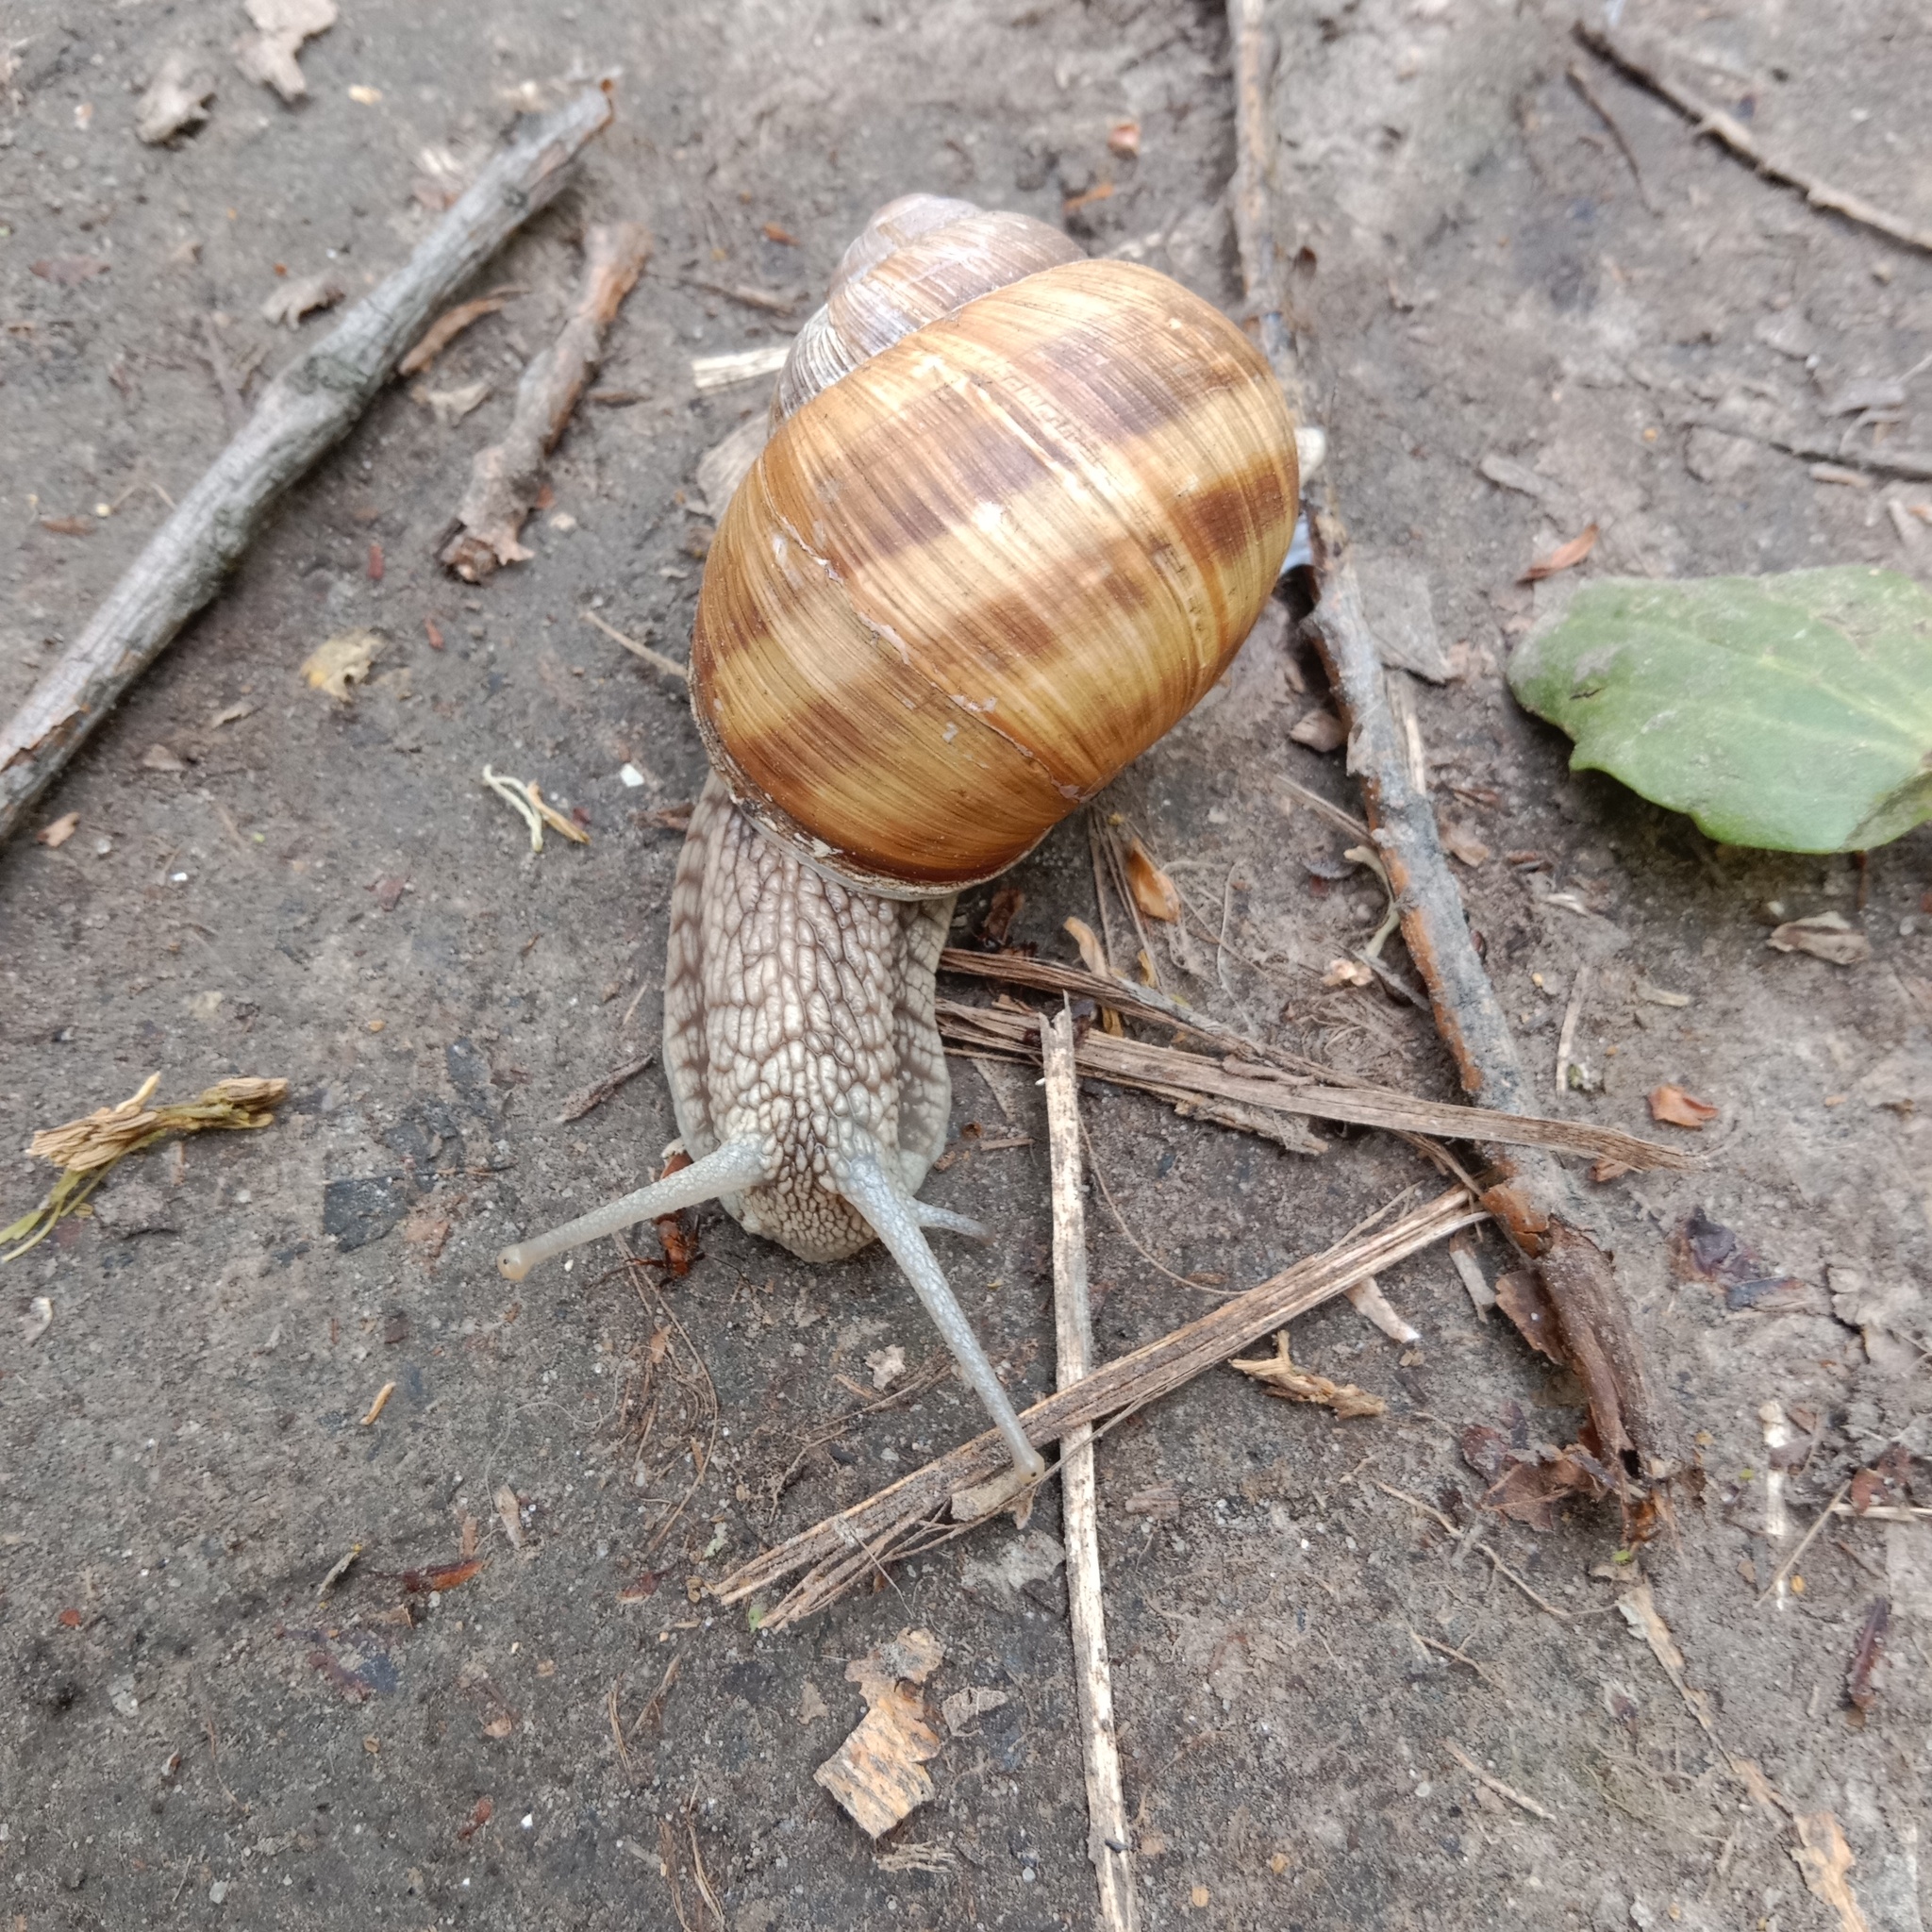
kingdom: Animalia
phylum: Mollusca
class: Gastropoda
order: Stylommatophora
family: Helicidae
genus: Helix
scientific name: Helix pomatia
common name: Roman snail
